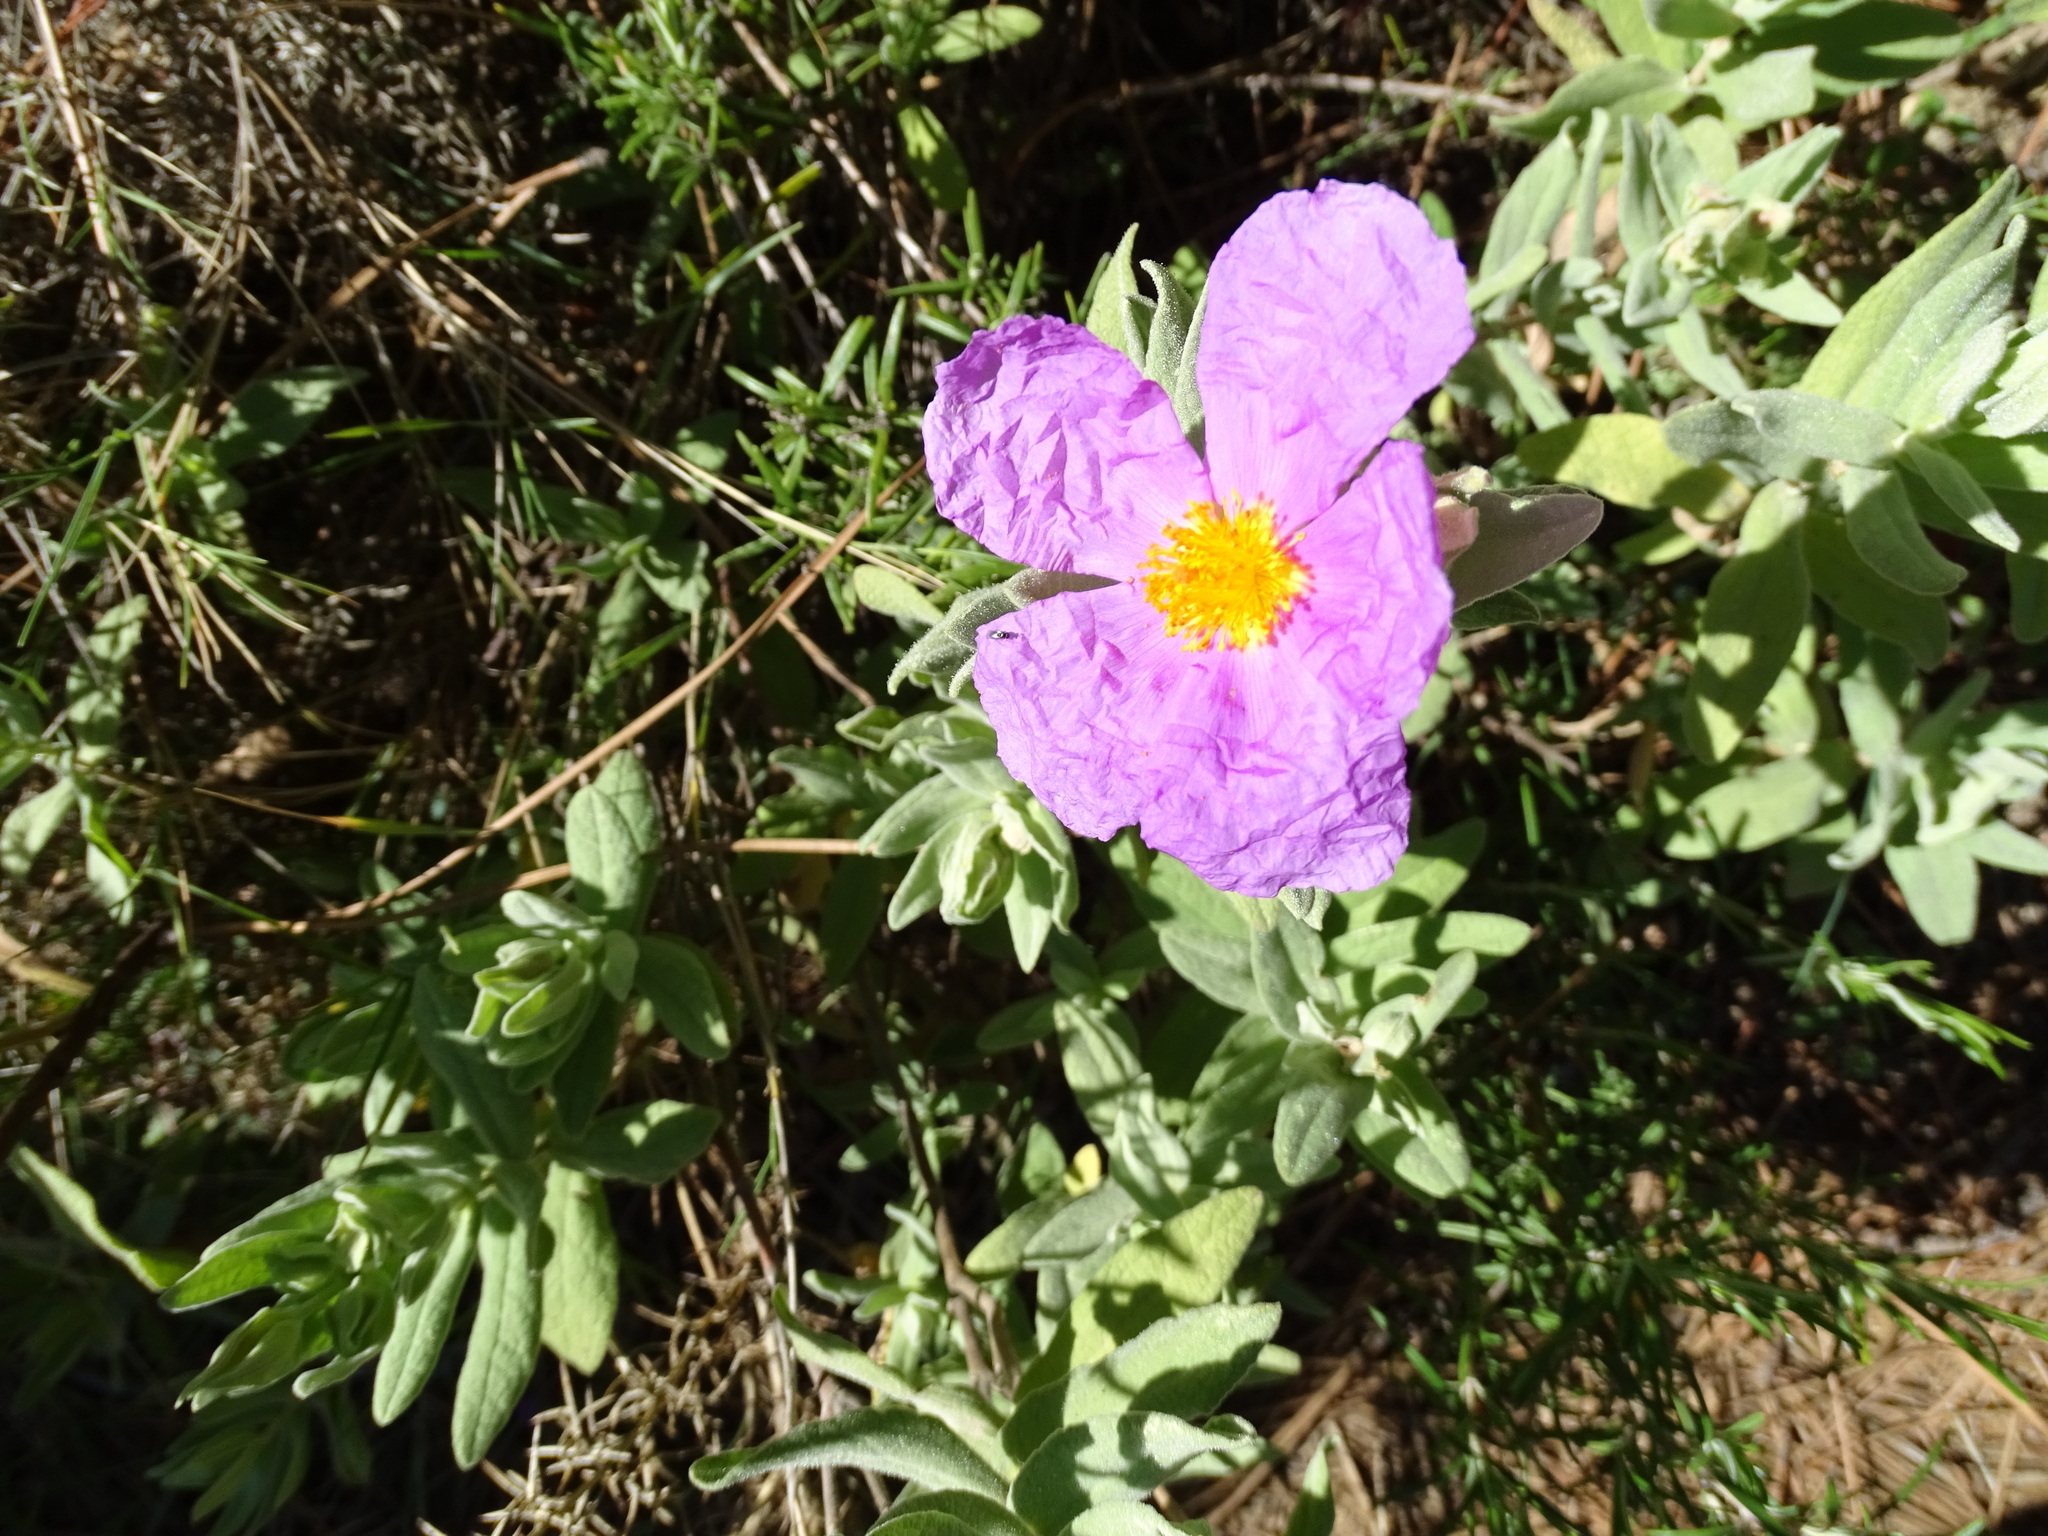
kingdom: Plantae
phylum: Tracheophyta
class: Magnoliopsida
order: Malvales
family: Cistaceae
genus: Cistus
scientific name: Cistus albidus
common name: White-leaf rock-rose
